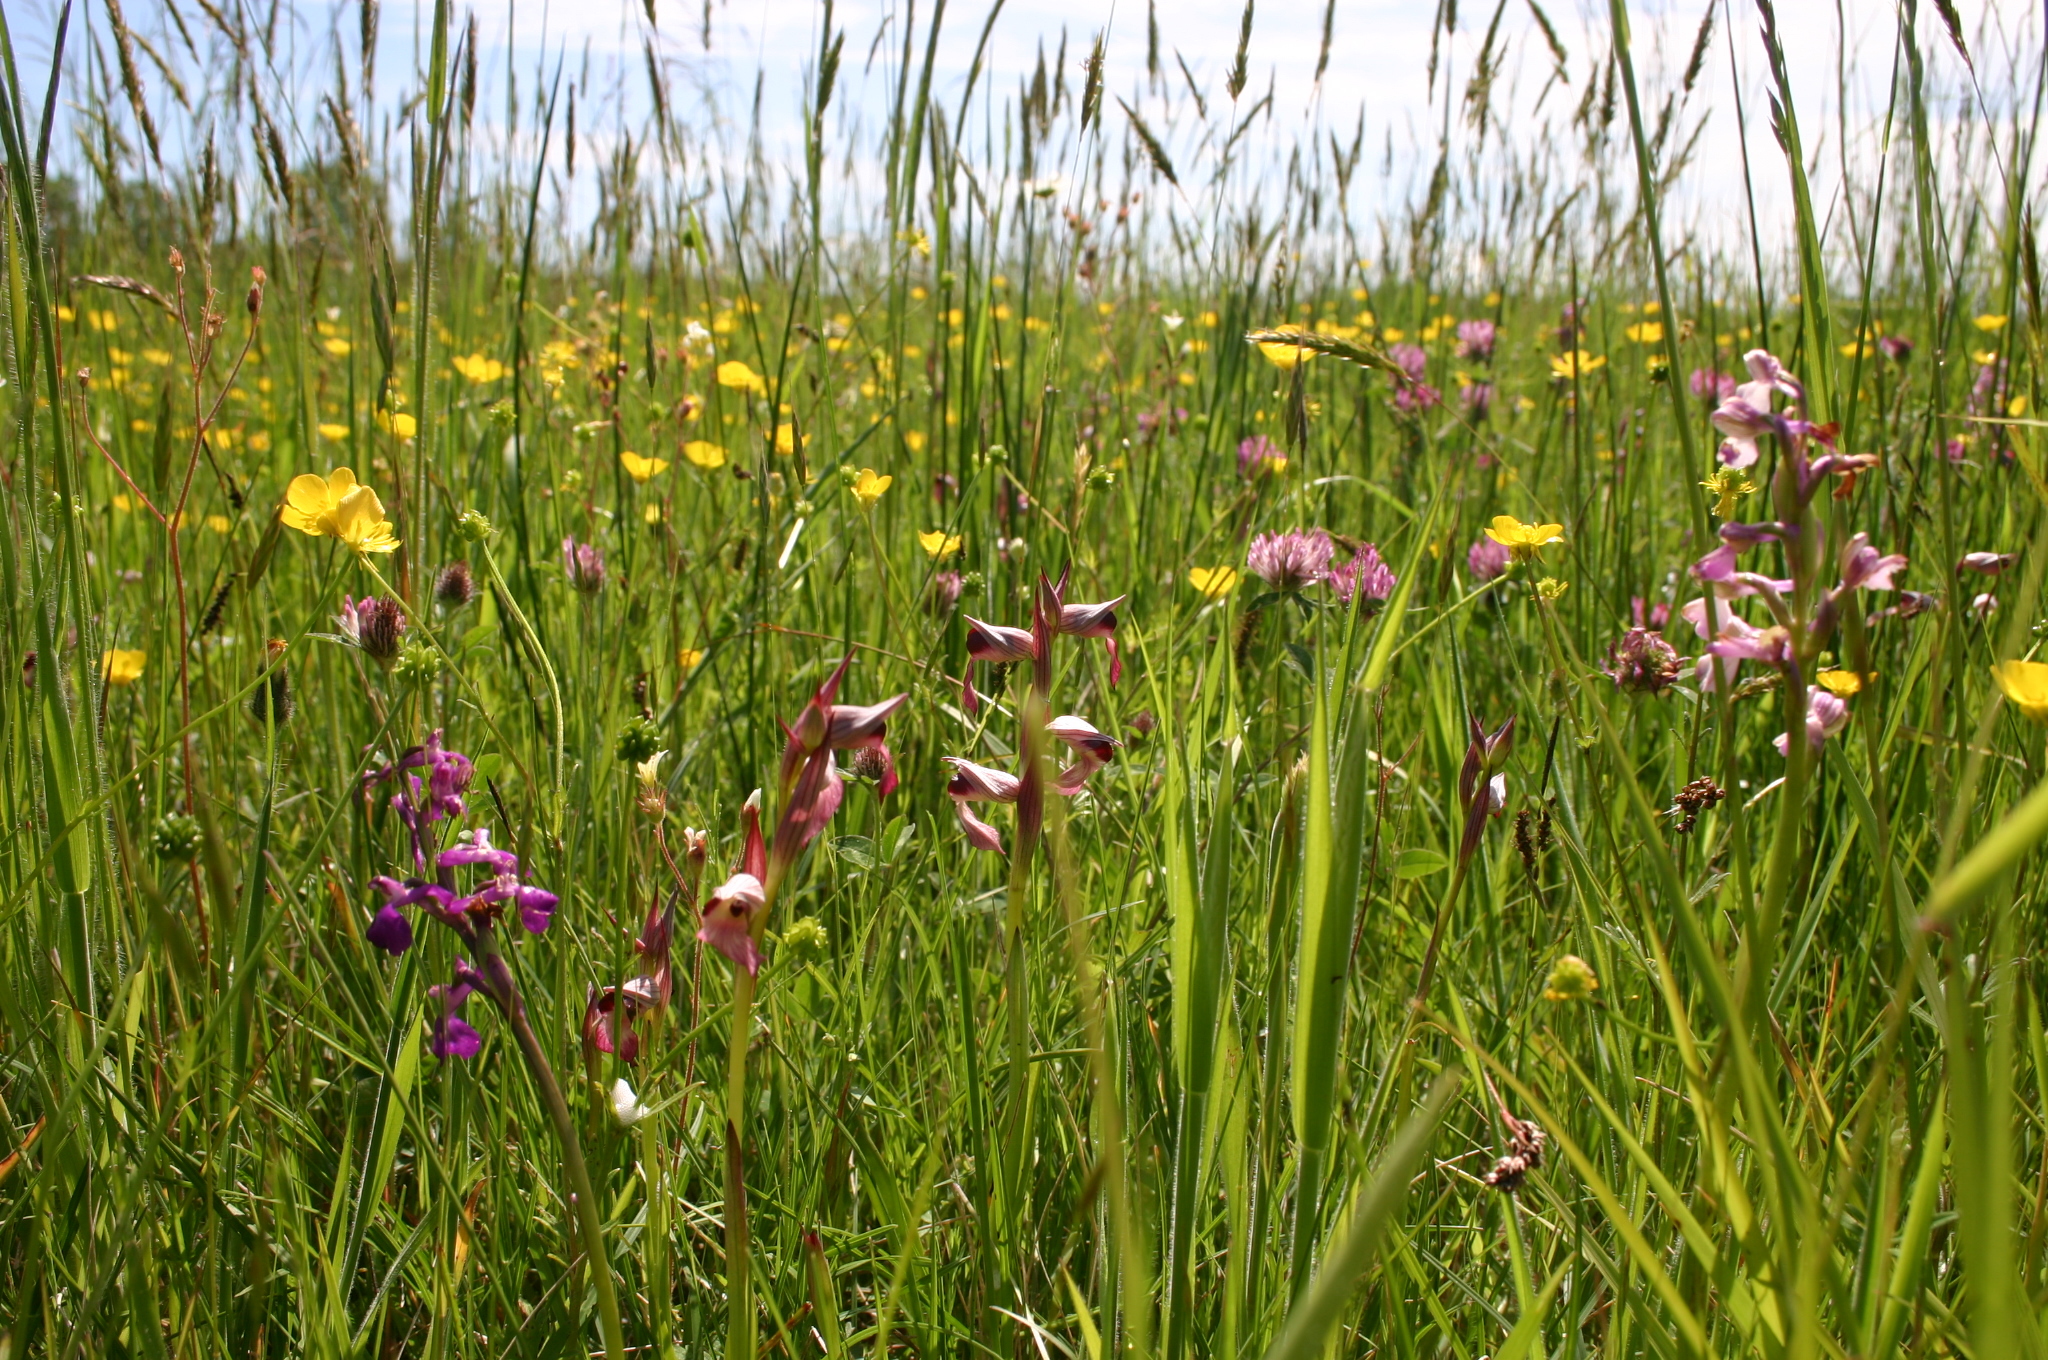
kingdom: Plantae
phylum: Tracheophyta
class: Liliopsida
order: Asparagales
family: Orchidaceae
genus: Serapias
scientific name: Serapias lingua
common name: Tongue-orchid
